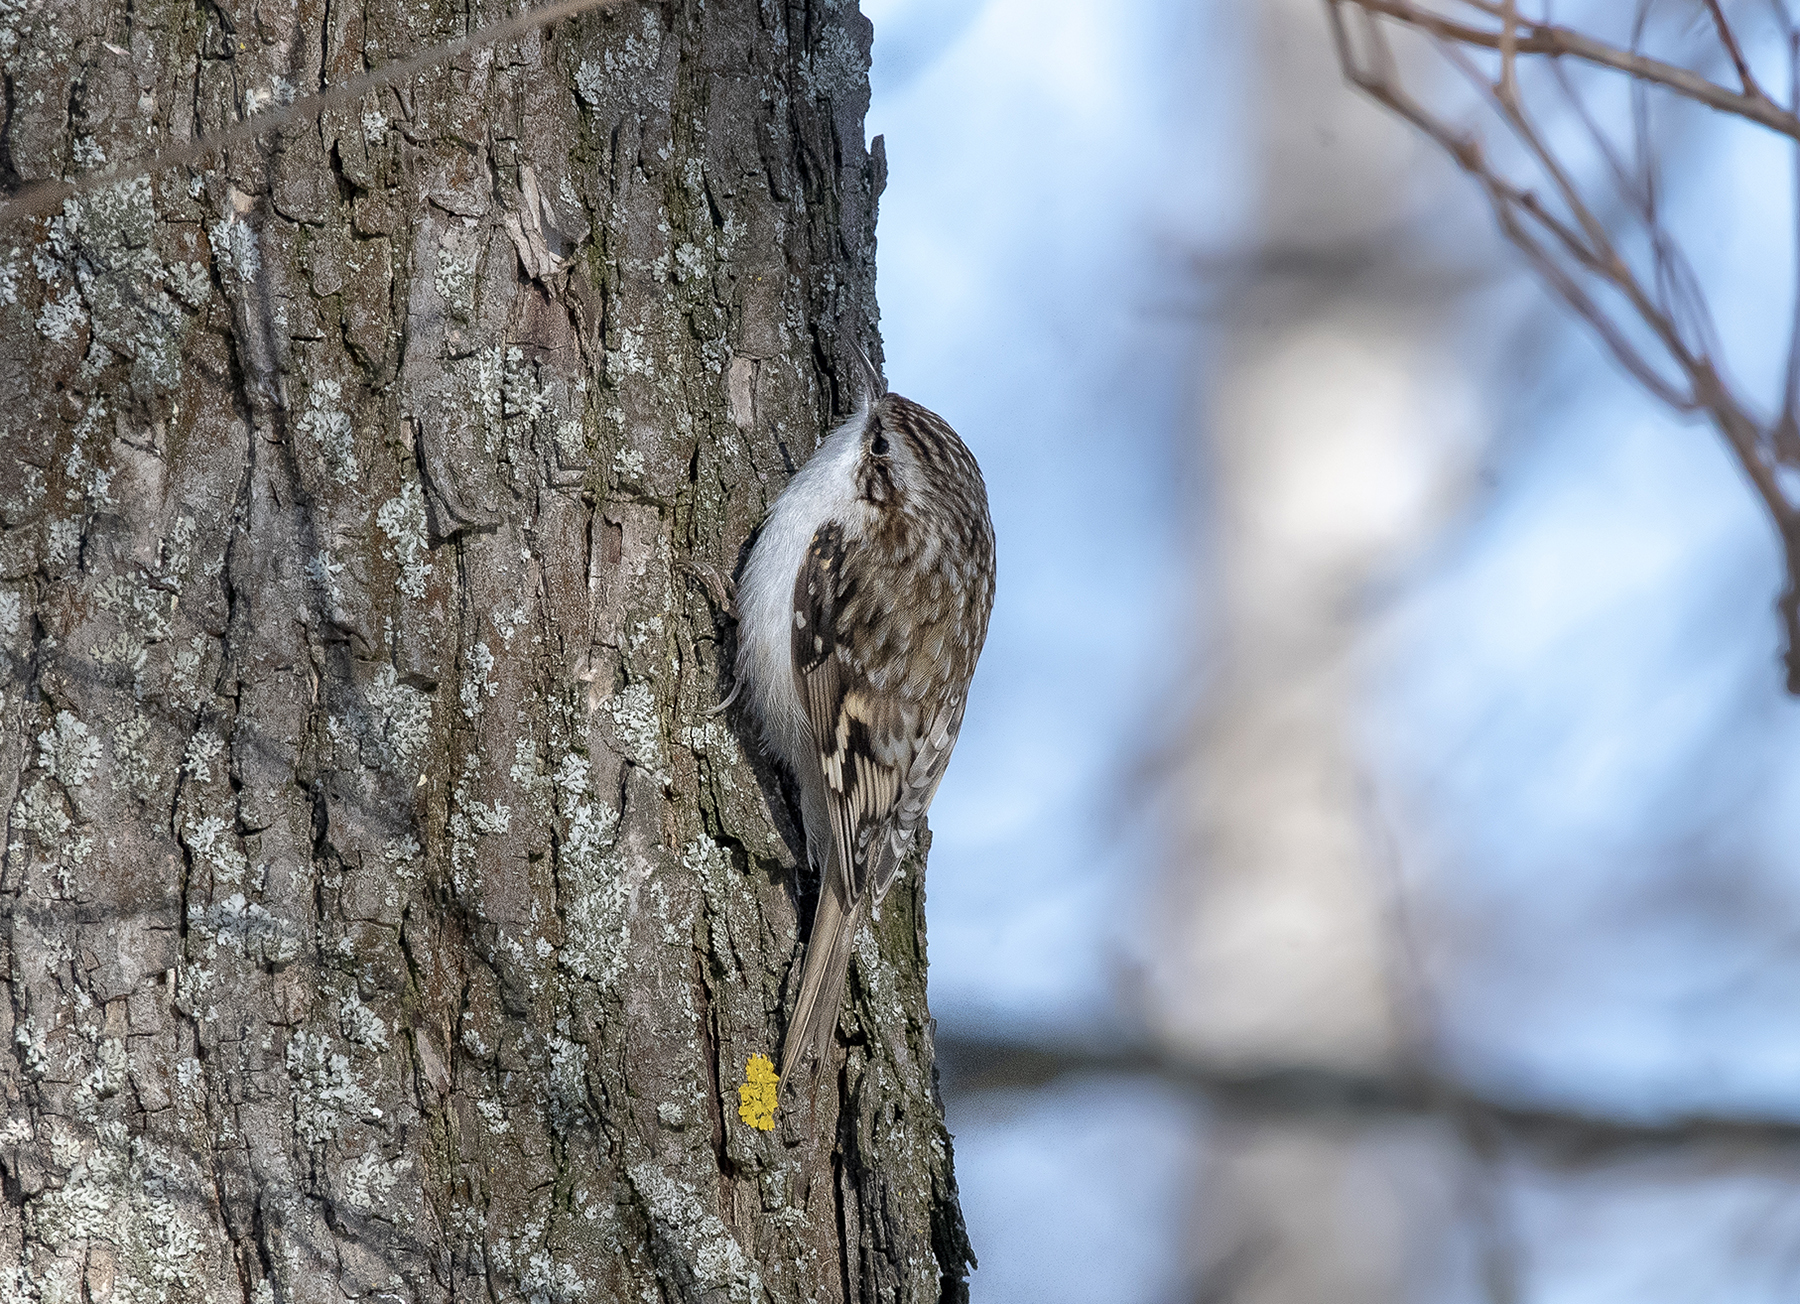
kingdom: Animalia
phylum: Chordata
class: Aves
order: Passeriformes
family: Certhiidae
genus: Certhia
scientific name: Certhia familiaris
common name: Eurasian treecreeper
